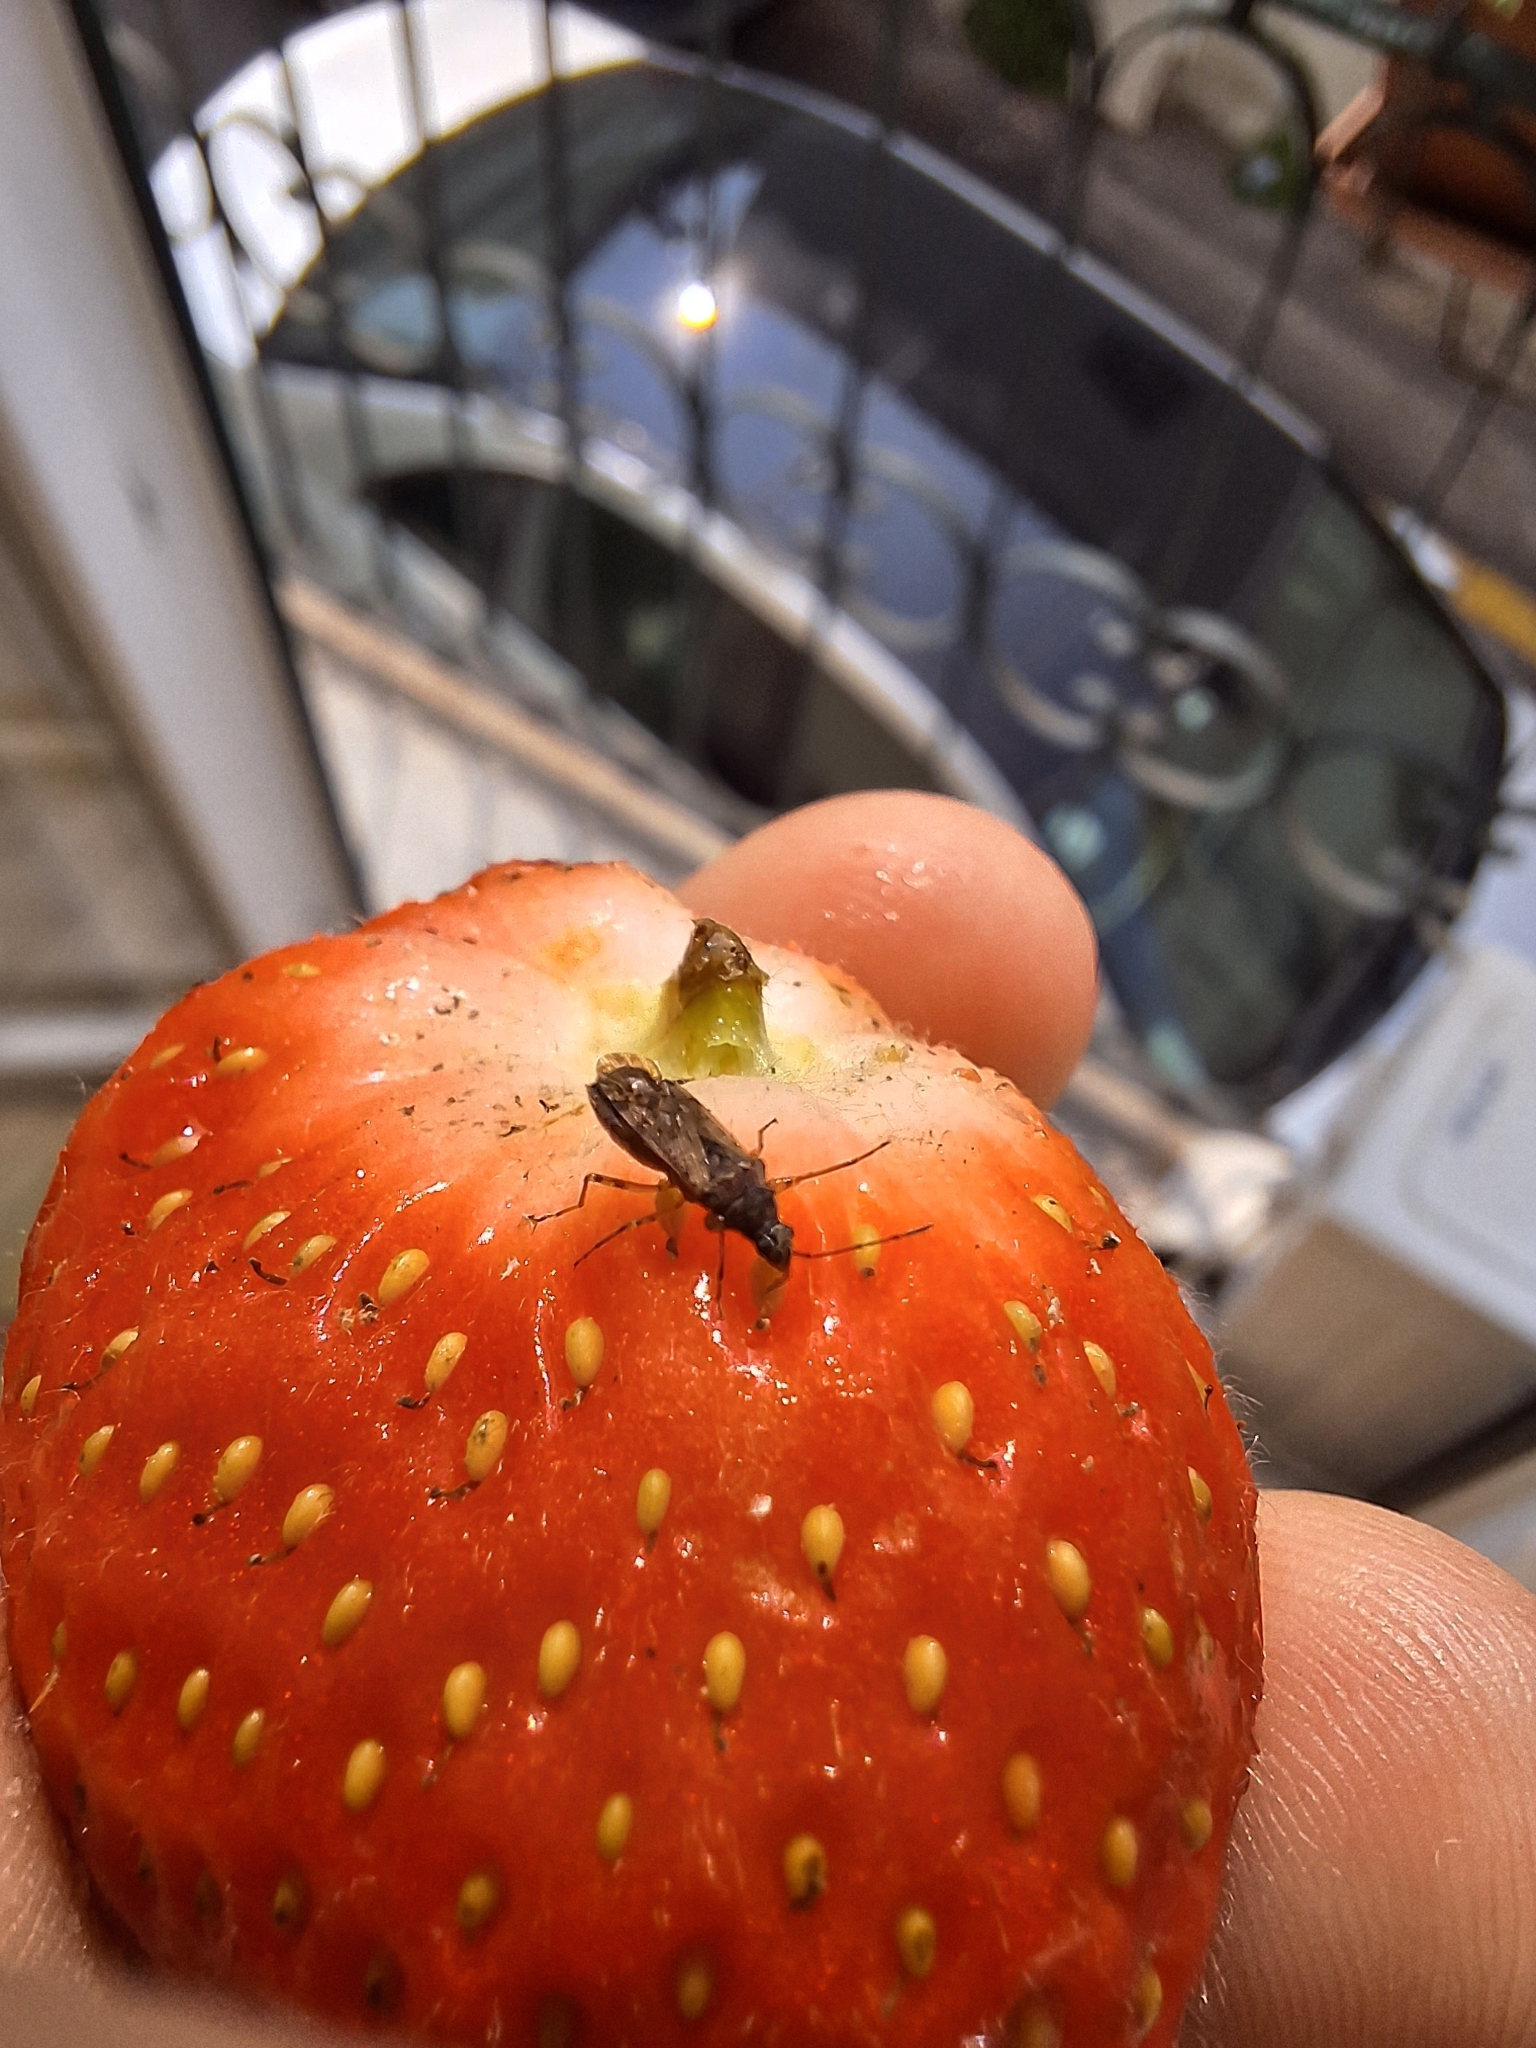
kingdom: Animalia
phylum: Arthropoda
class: Insecta
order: Hemiptera
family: Rhyparochromidae
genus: Remaudiereana
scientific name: Remaudiereana annulipes
